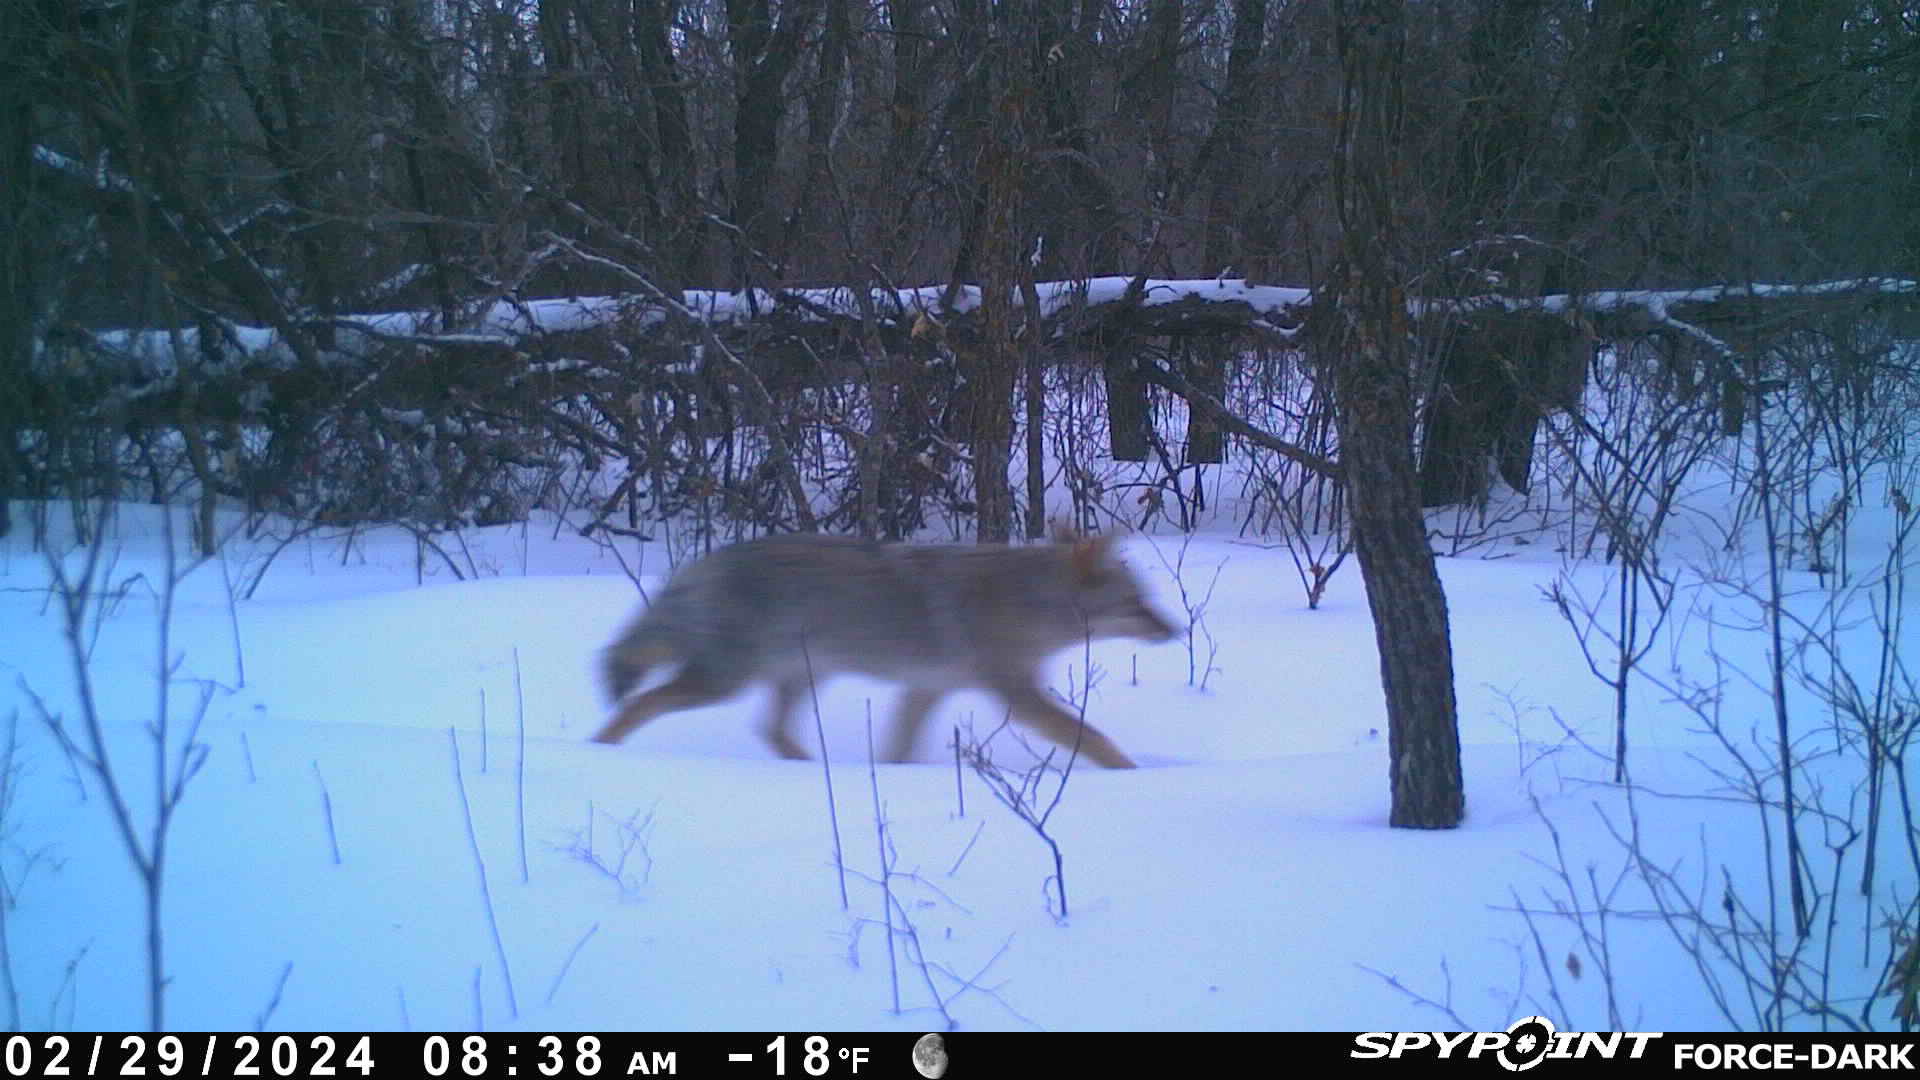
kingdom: Animalia
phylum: Chordata
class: Mammalia
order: Carnivora
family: Canidae
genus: Canis
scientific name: Canis latrans
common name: Coyote
